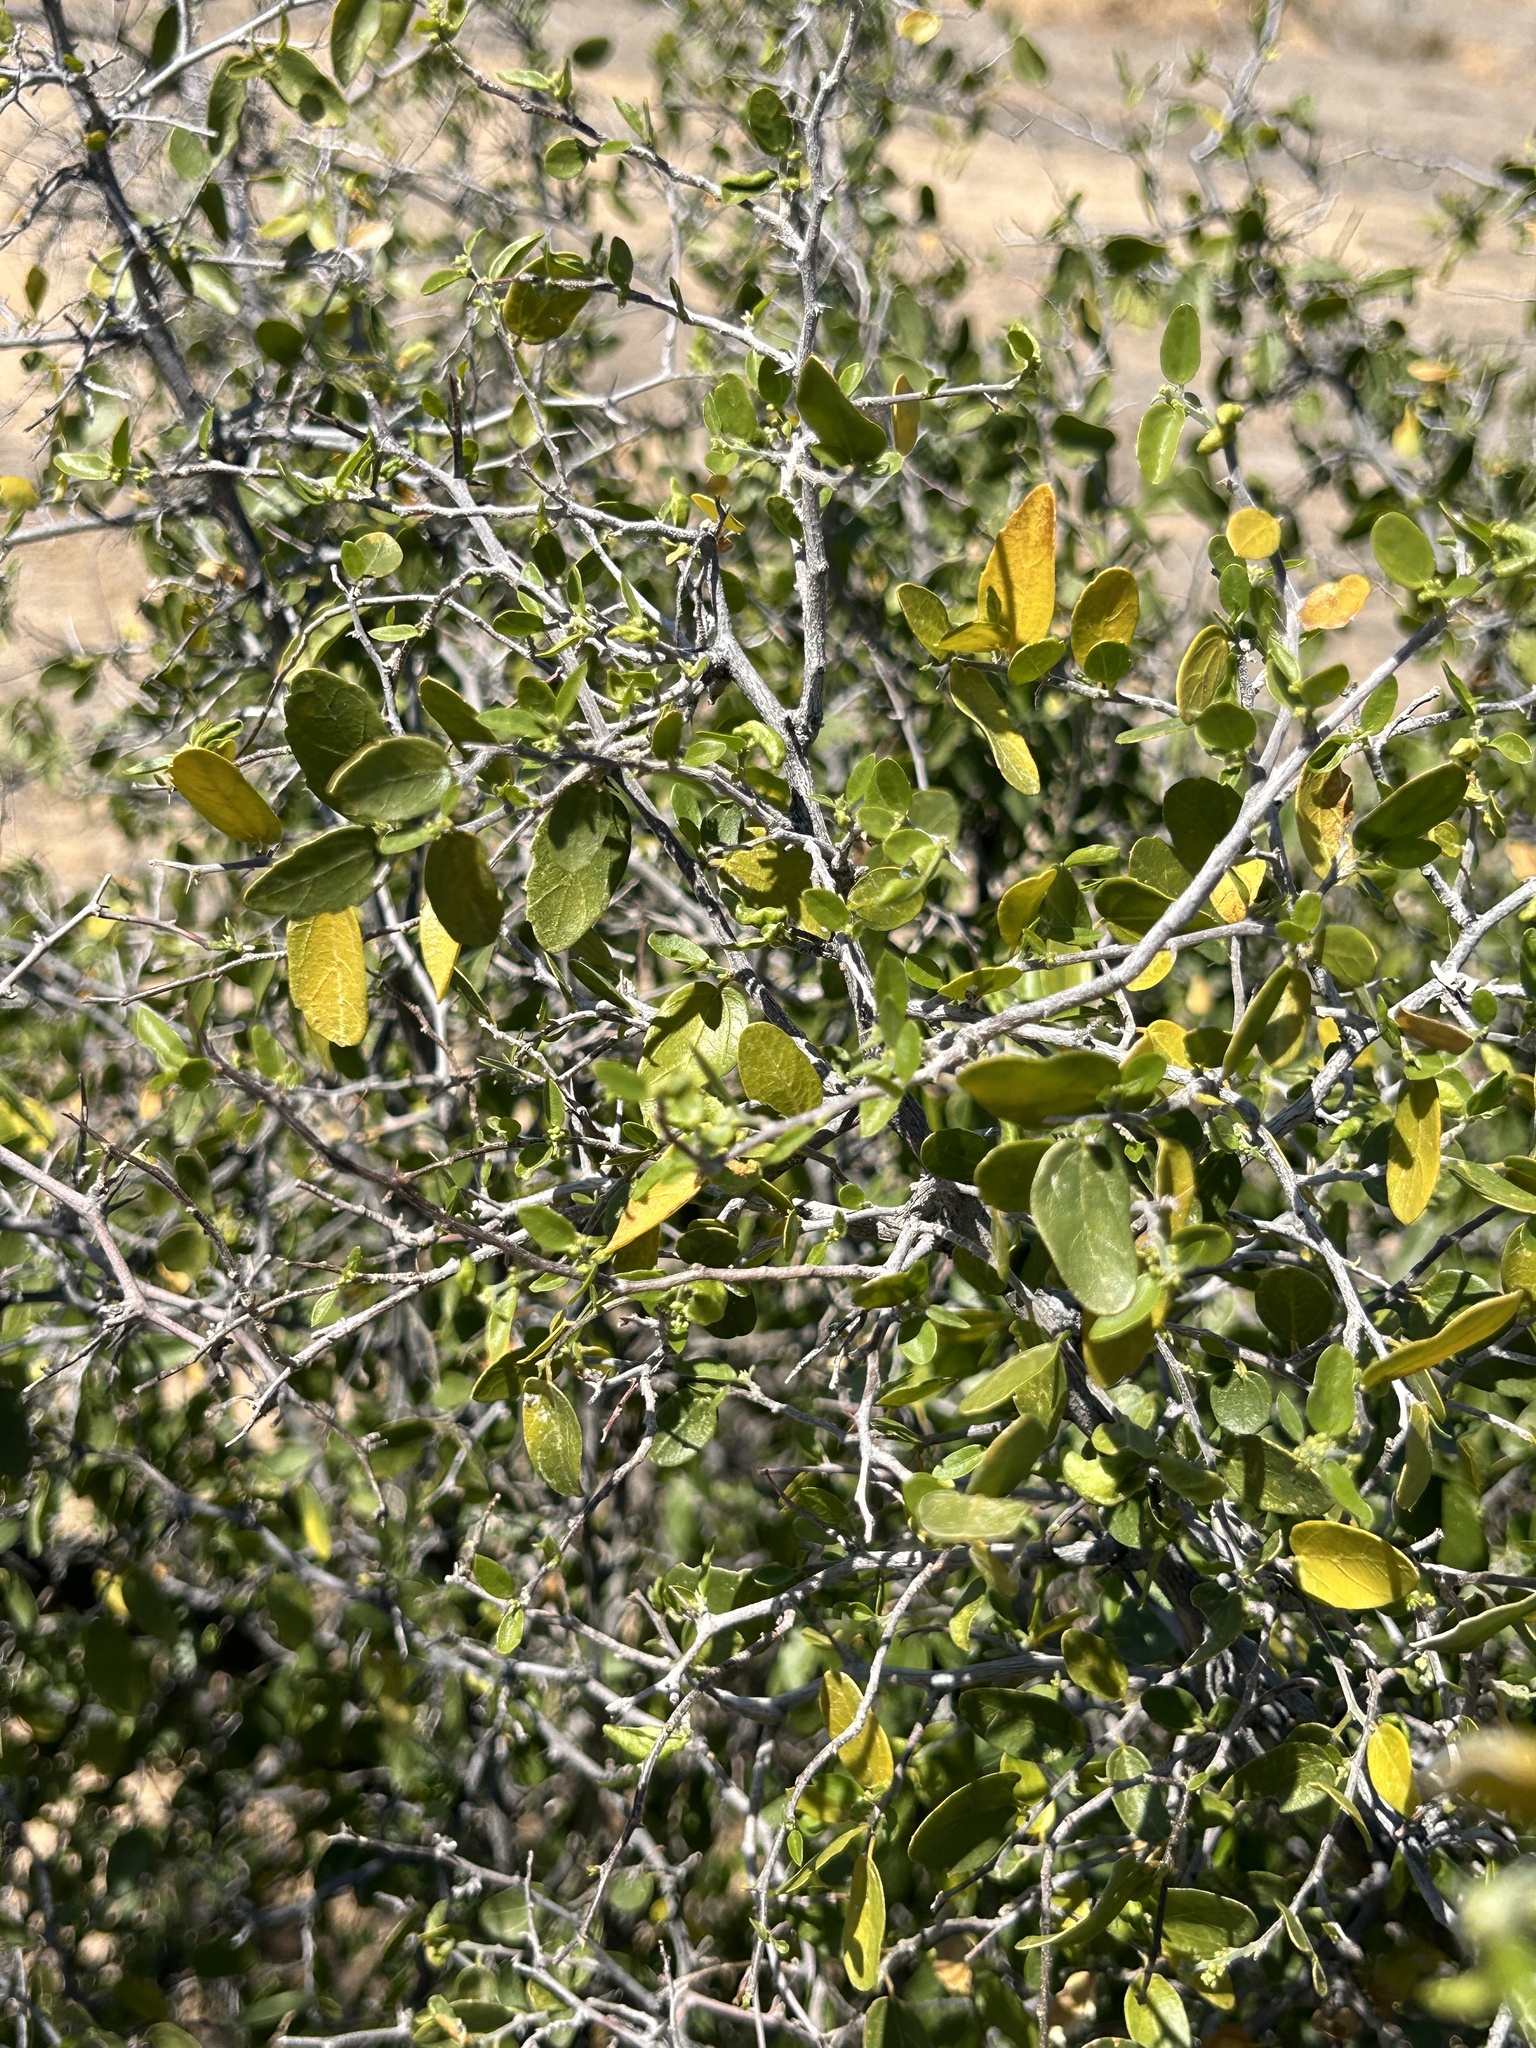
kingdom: Plantae
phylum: Tracheophyta
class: Magnoliopsida
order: Rosales
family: Cannabaceae
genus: Celtis
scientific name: Celtis pallida
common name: Desert hackberry
